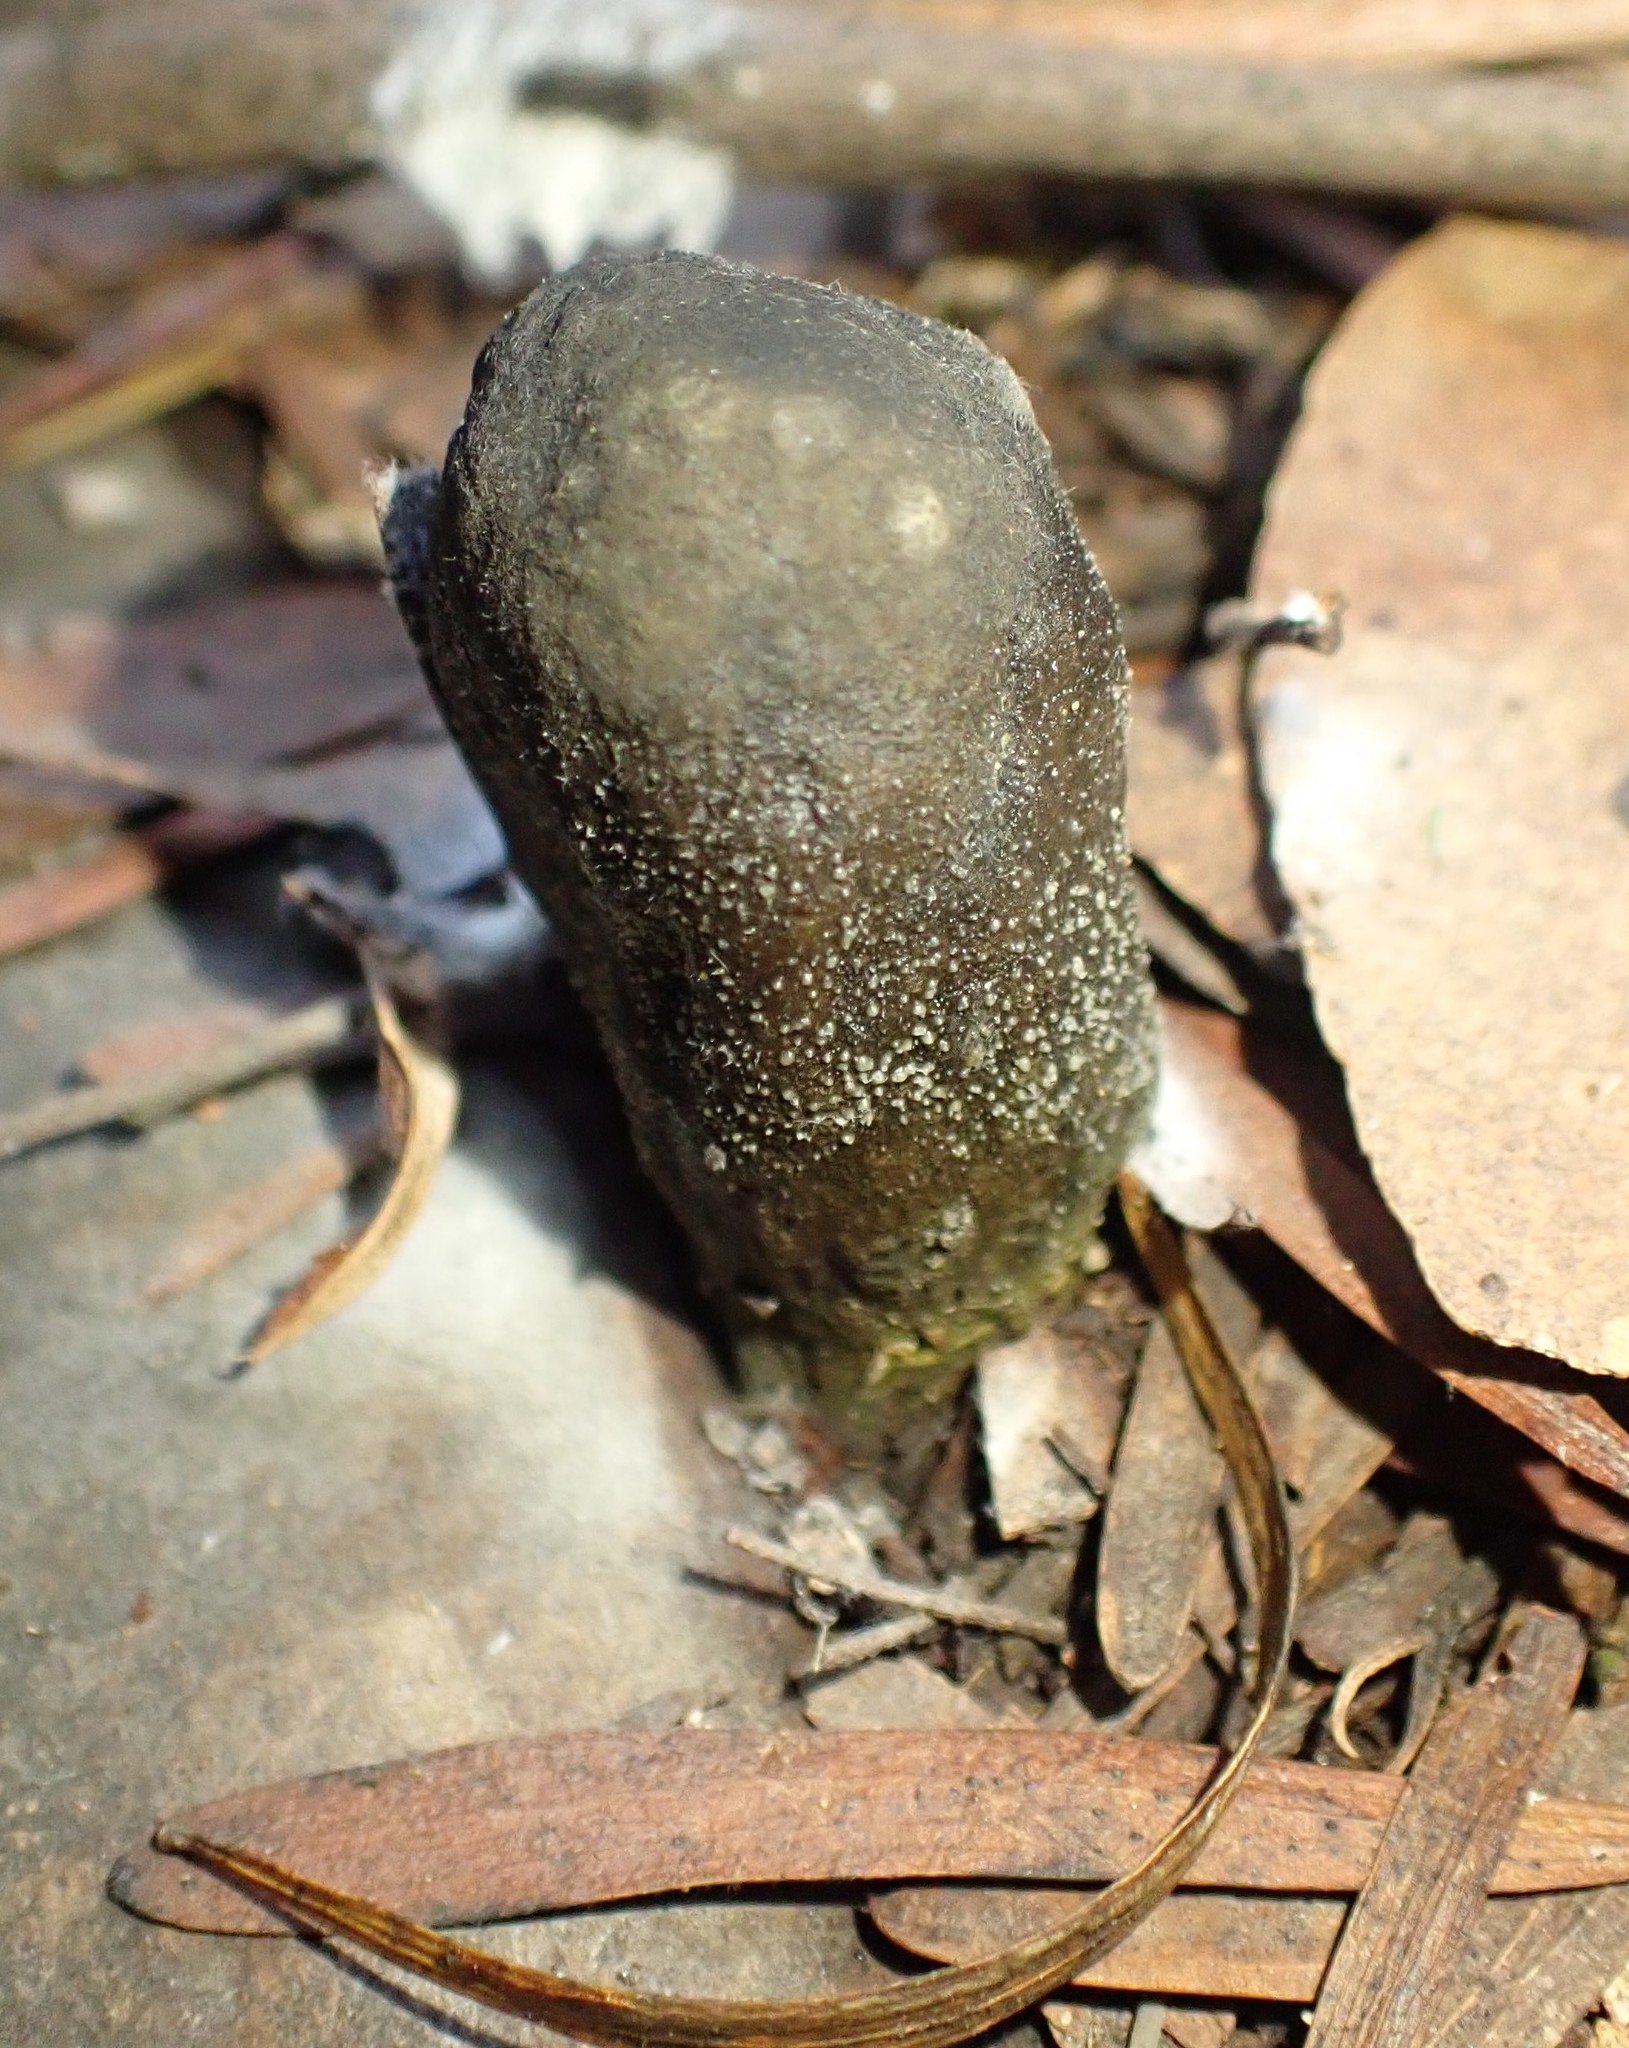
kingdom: Fungi
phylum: Ascomycota
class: Sordariomycetes
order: Hypocreales
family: Clavicipitaceae
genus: Drechmeria
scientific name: Drechmeria gunnii
